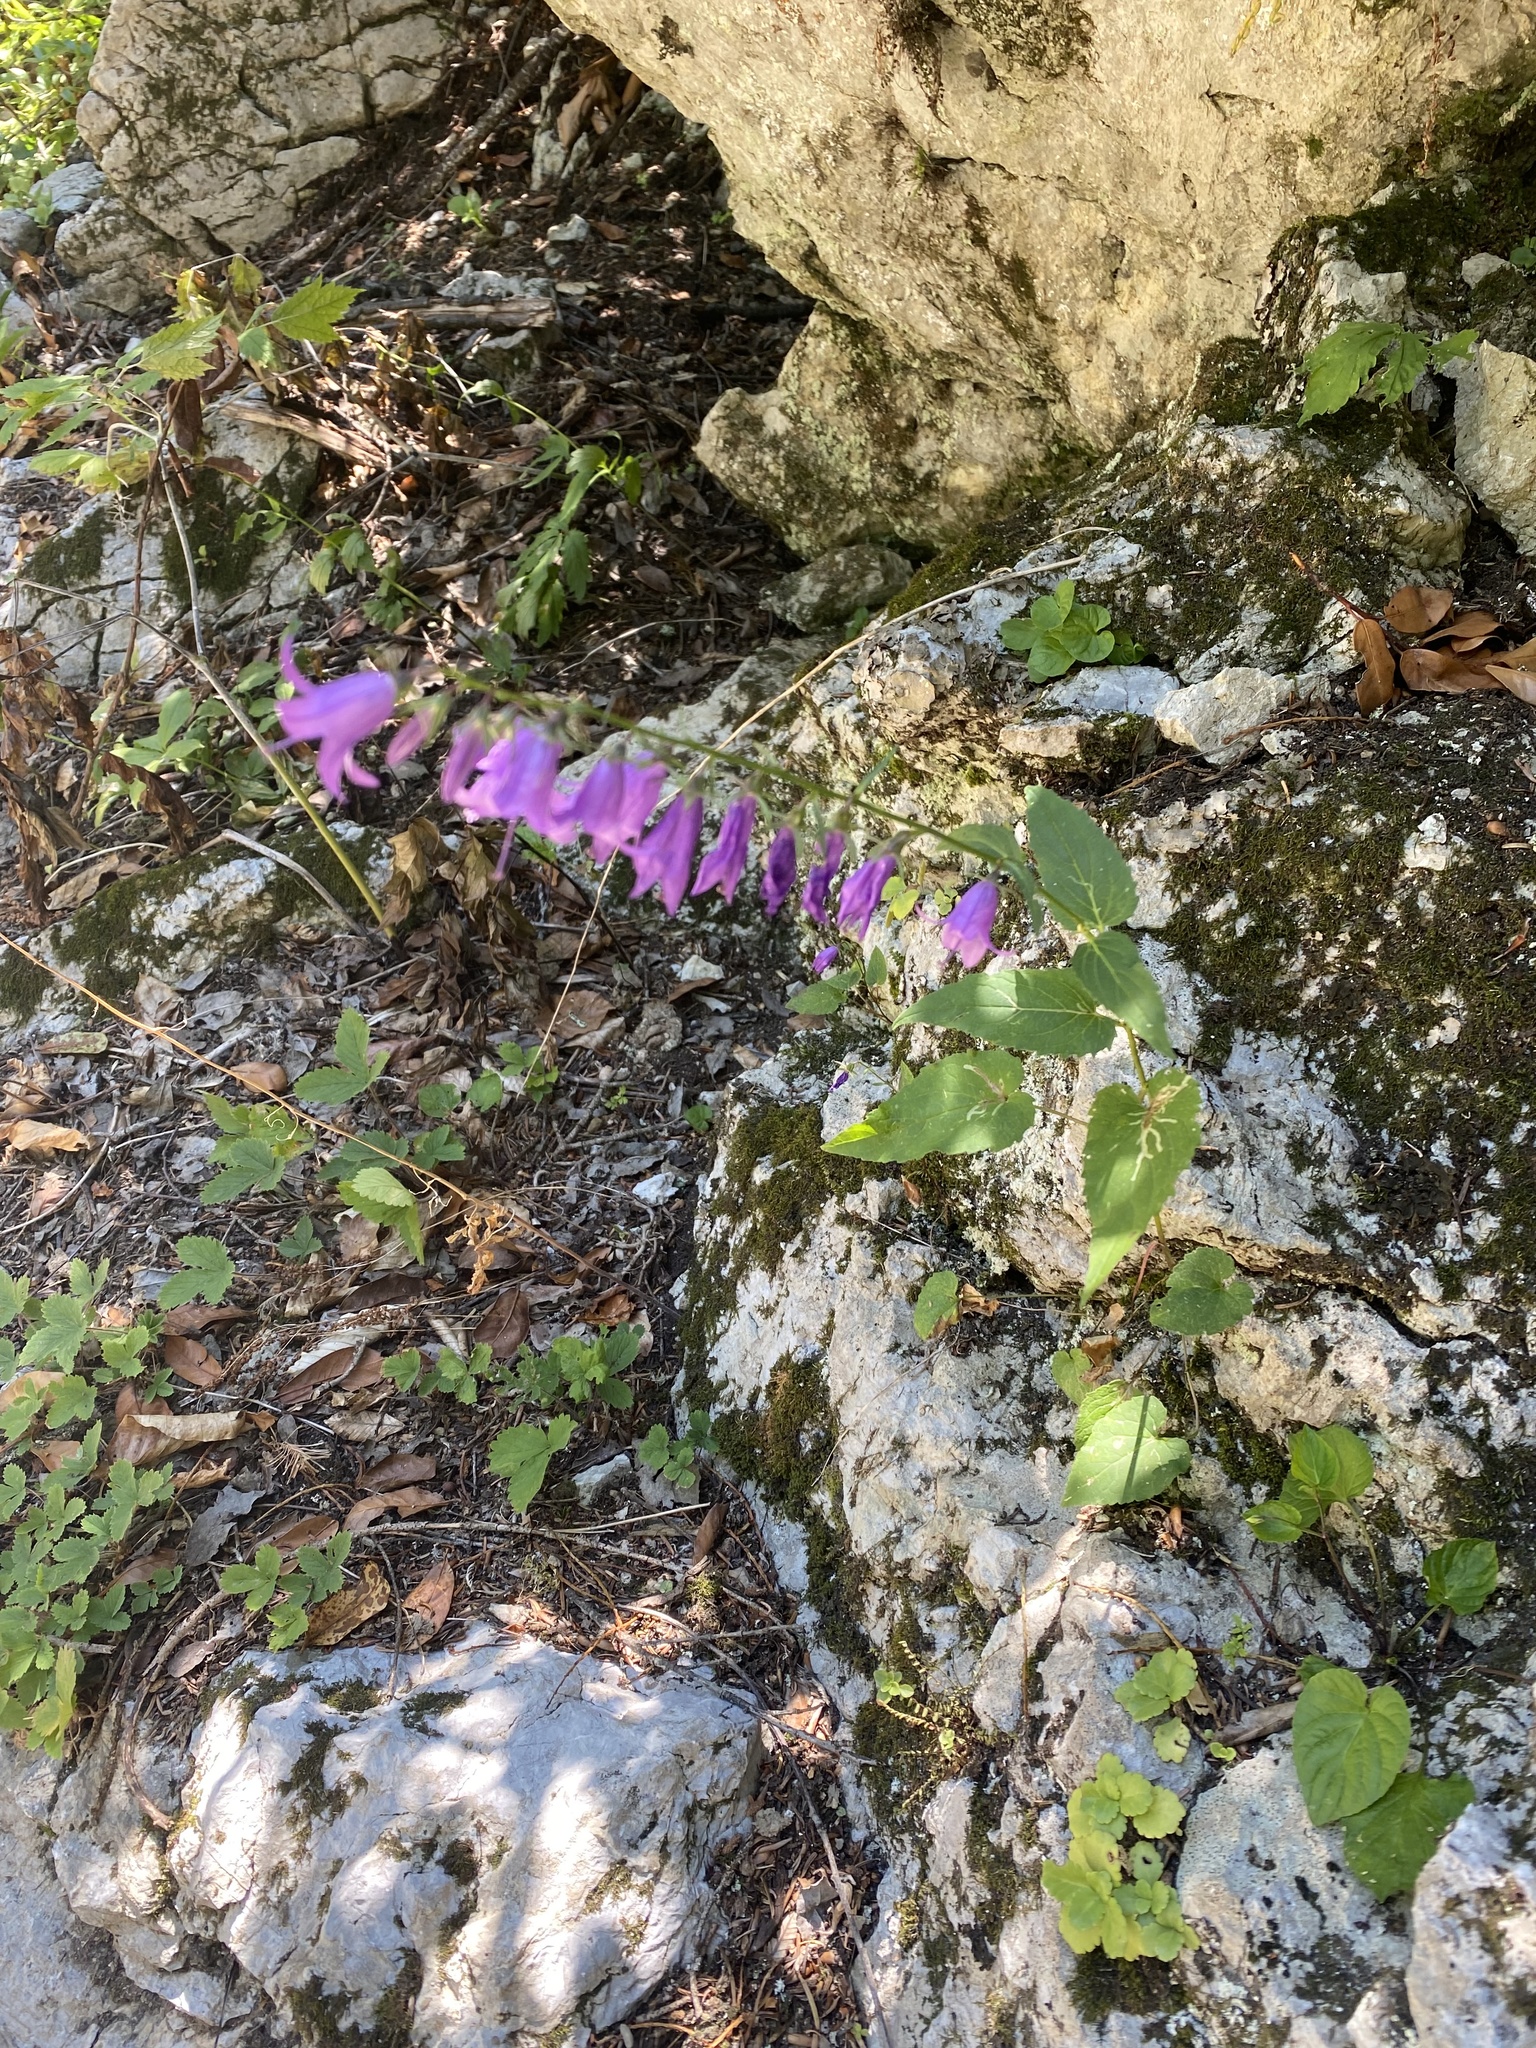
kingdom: Plantae
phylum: Tracheophyta
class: Magnoliopsida
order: Asterales
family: Campanulaceae
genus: Campanula
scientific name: Campanula rapunculoides
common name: Creeping bellflower
